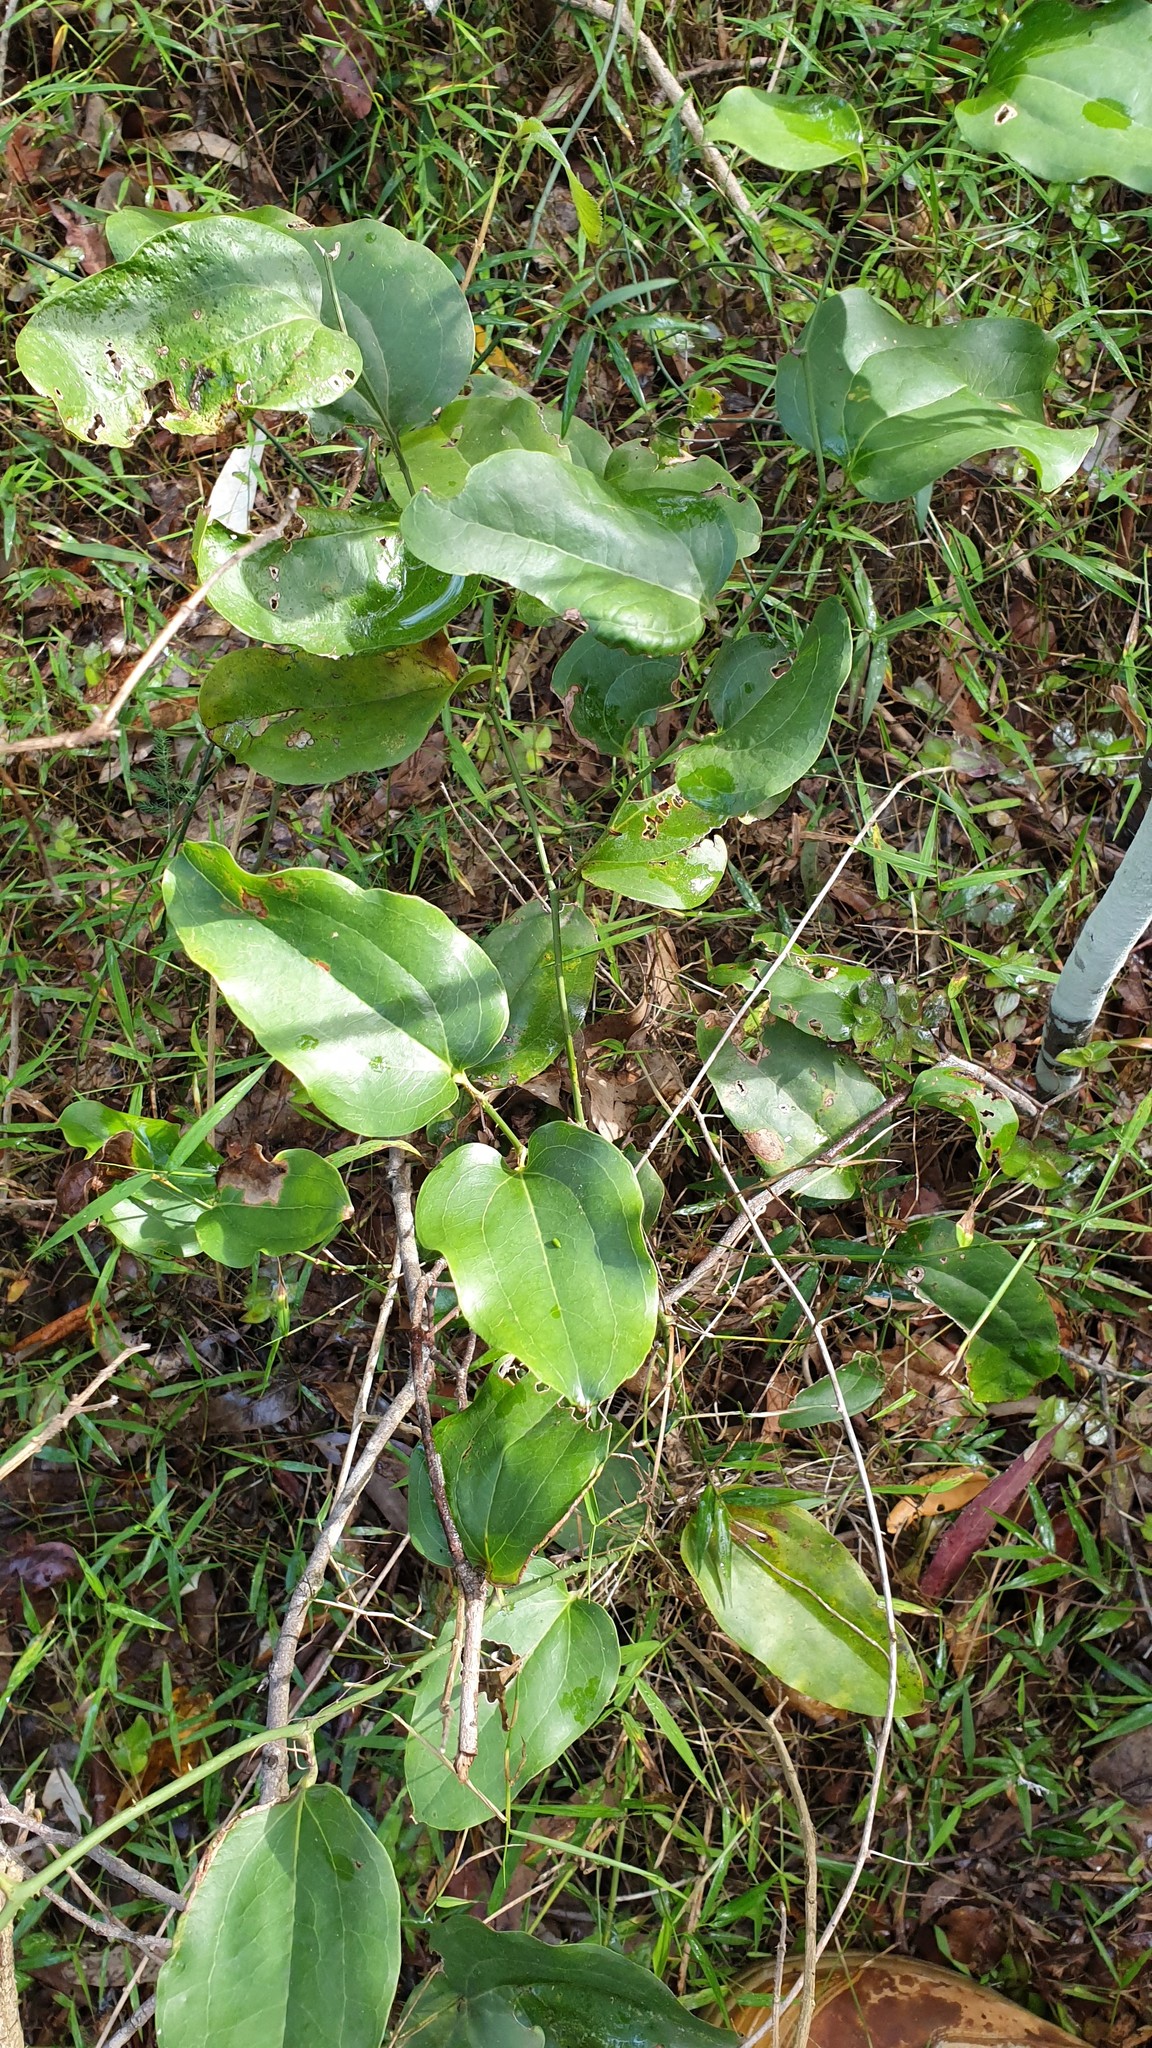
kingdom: Plantae
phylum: Tracheophyta
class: Liliopsida
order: Liliales
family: Smilacaceae
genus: Smilax
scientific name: Smilax australis
